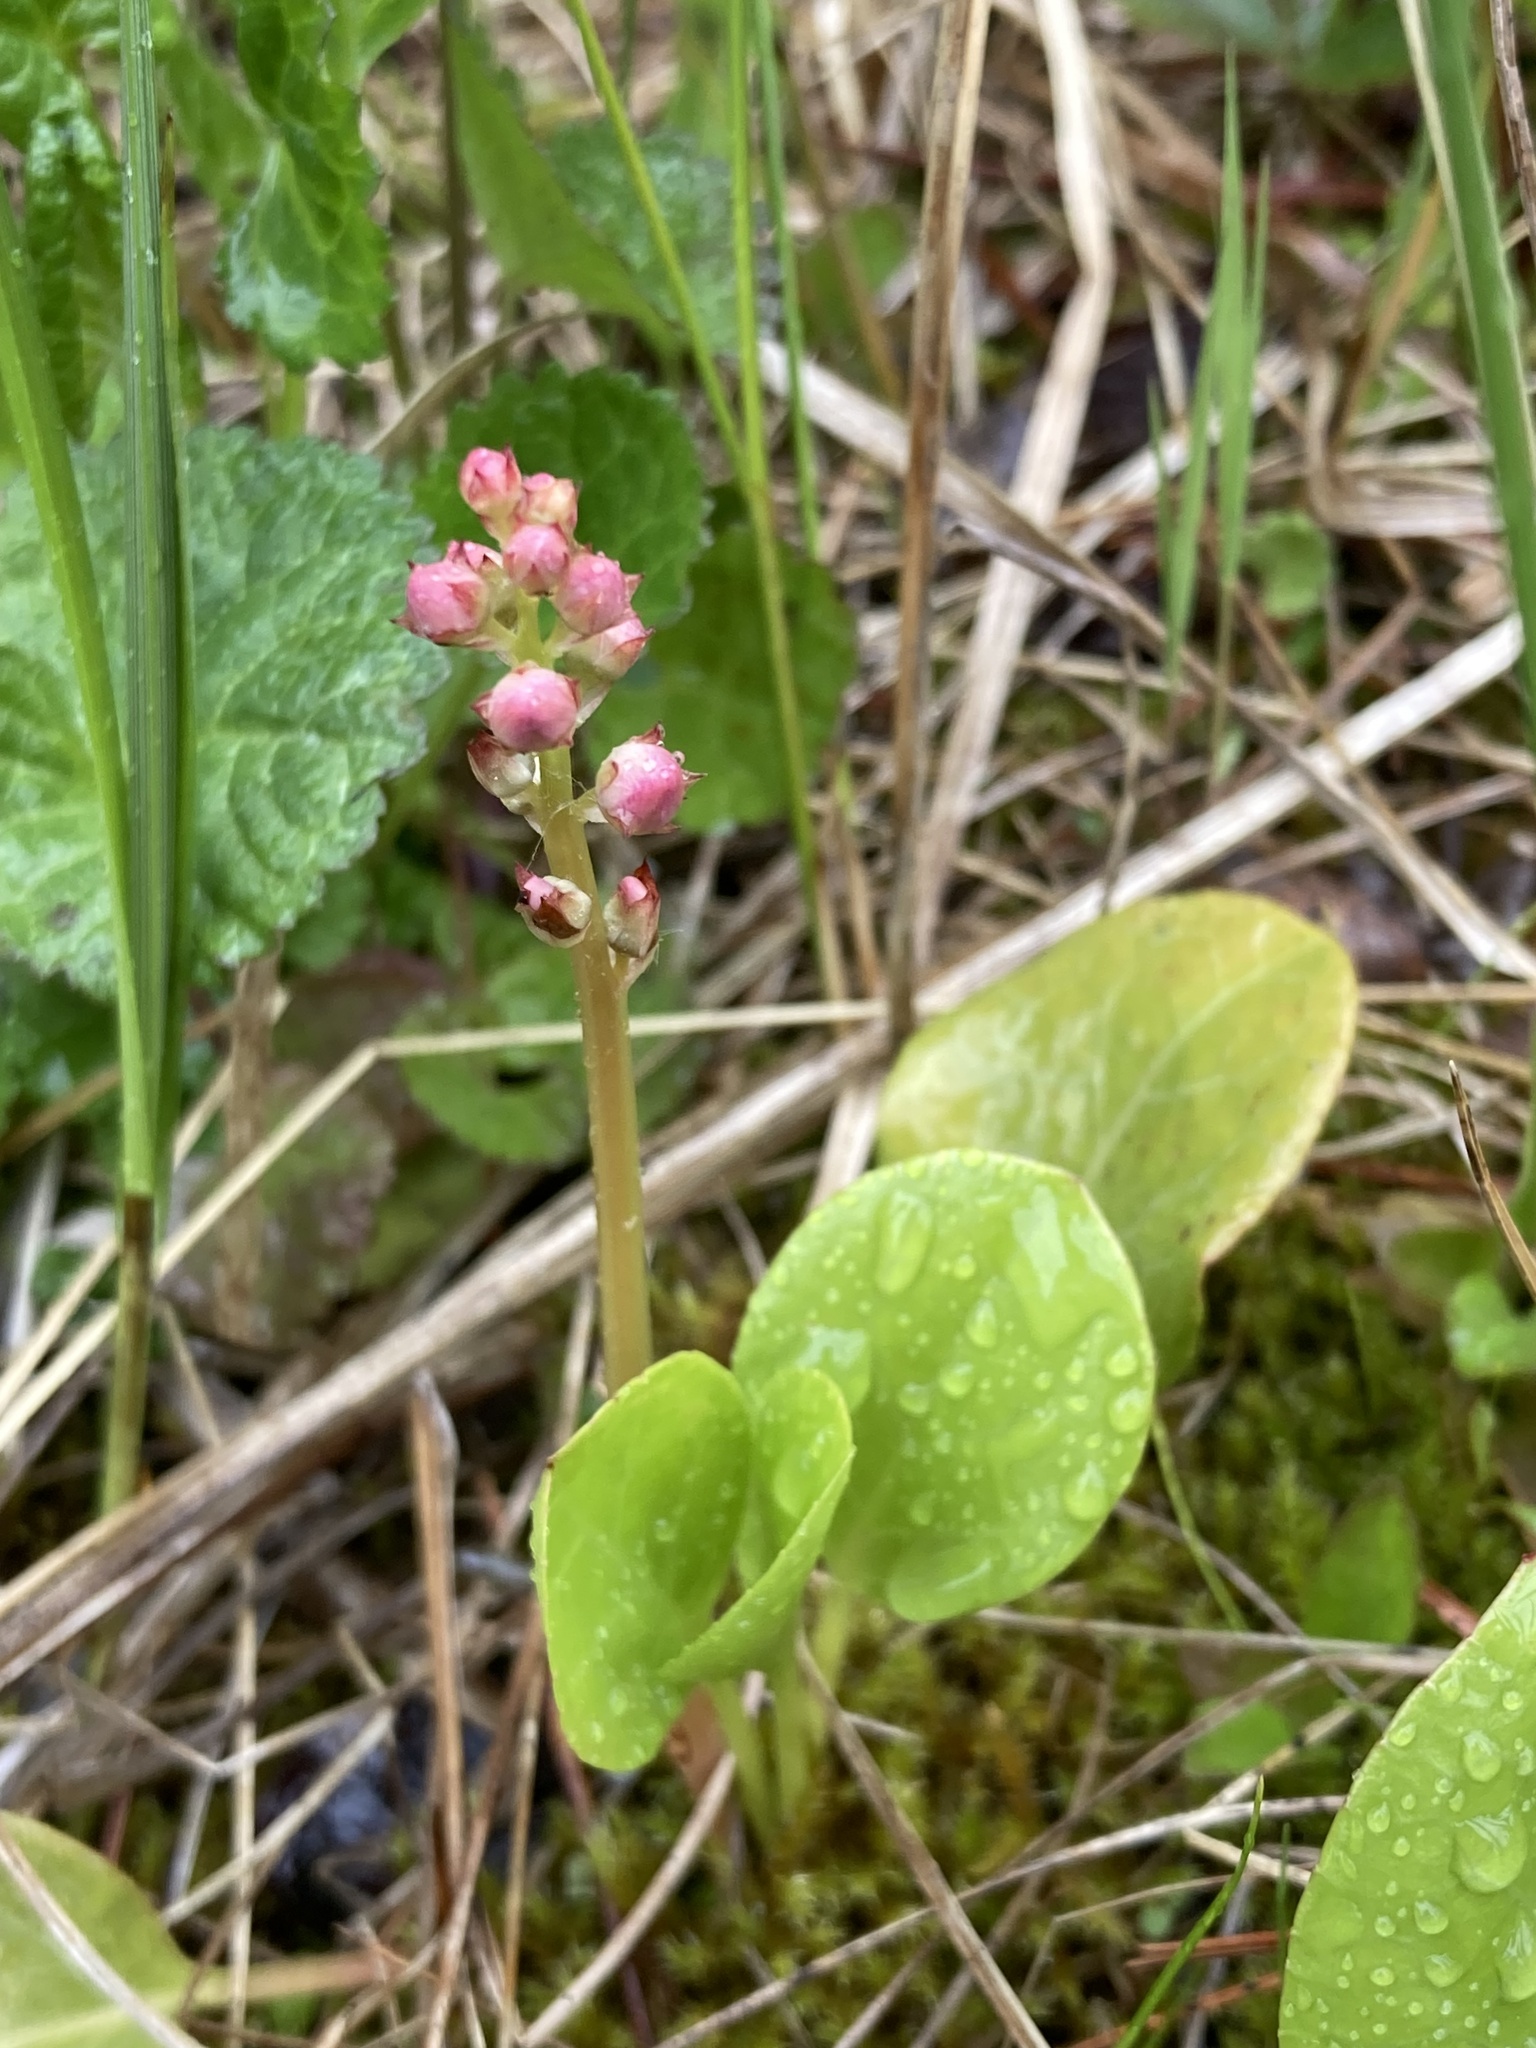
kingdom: Plantae
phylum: Tracheophyta
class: Magnoliopsida
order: Ericales
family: Ericaceae
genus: Pyrola
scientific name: Pyrola asarifolia
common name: Bog wintergreen
